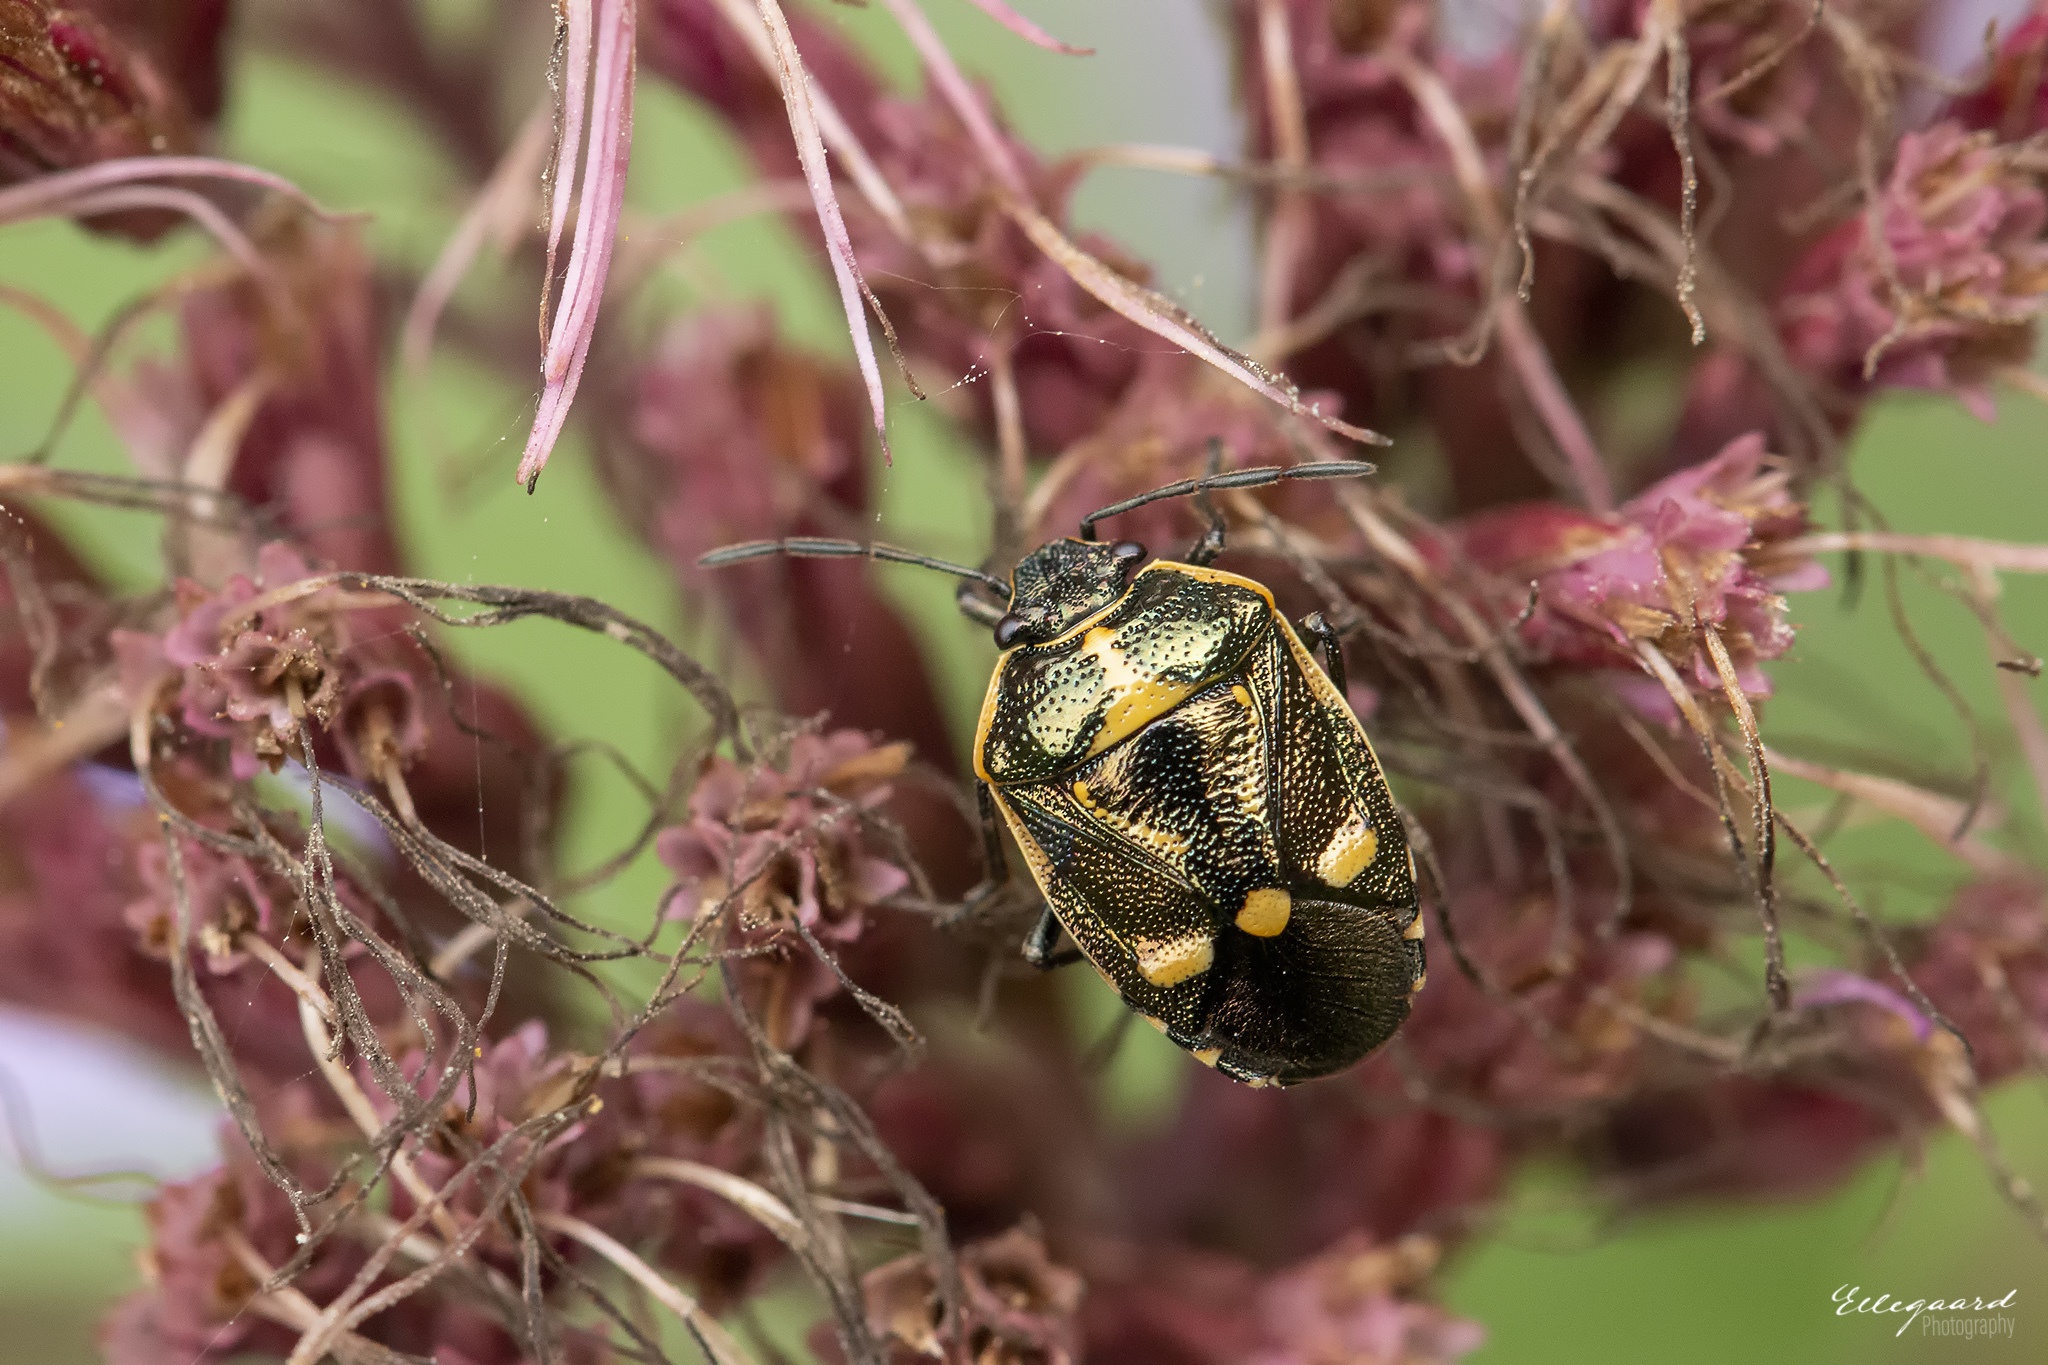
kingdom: Animalia
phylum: Arthropoda
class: Insecta
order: Hemiptera
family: Pentatomidae
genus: Eurydema
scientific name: Eurydema oleracea
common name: Cabbage bug
